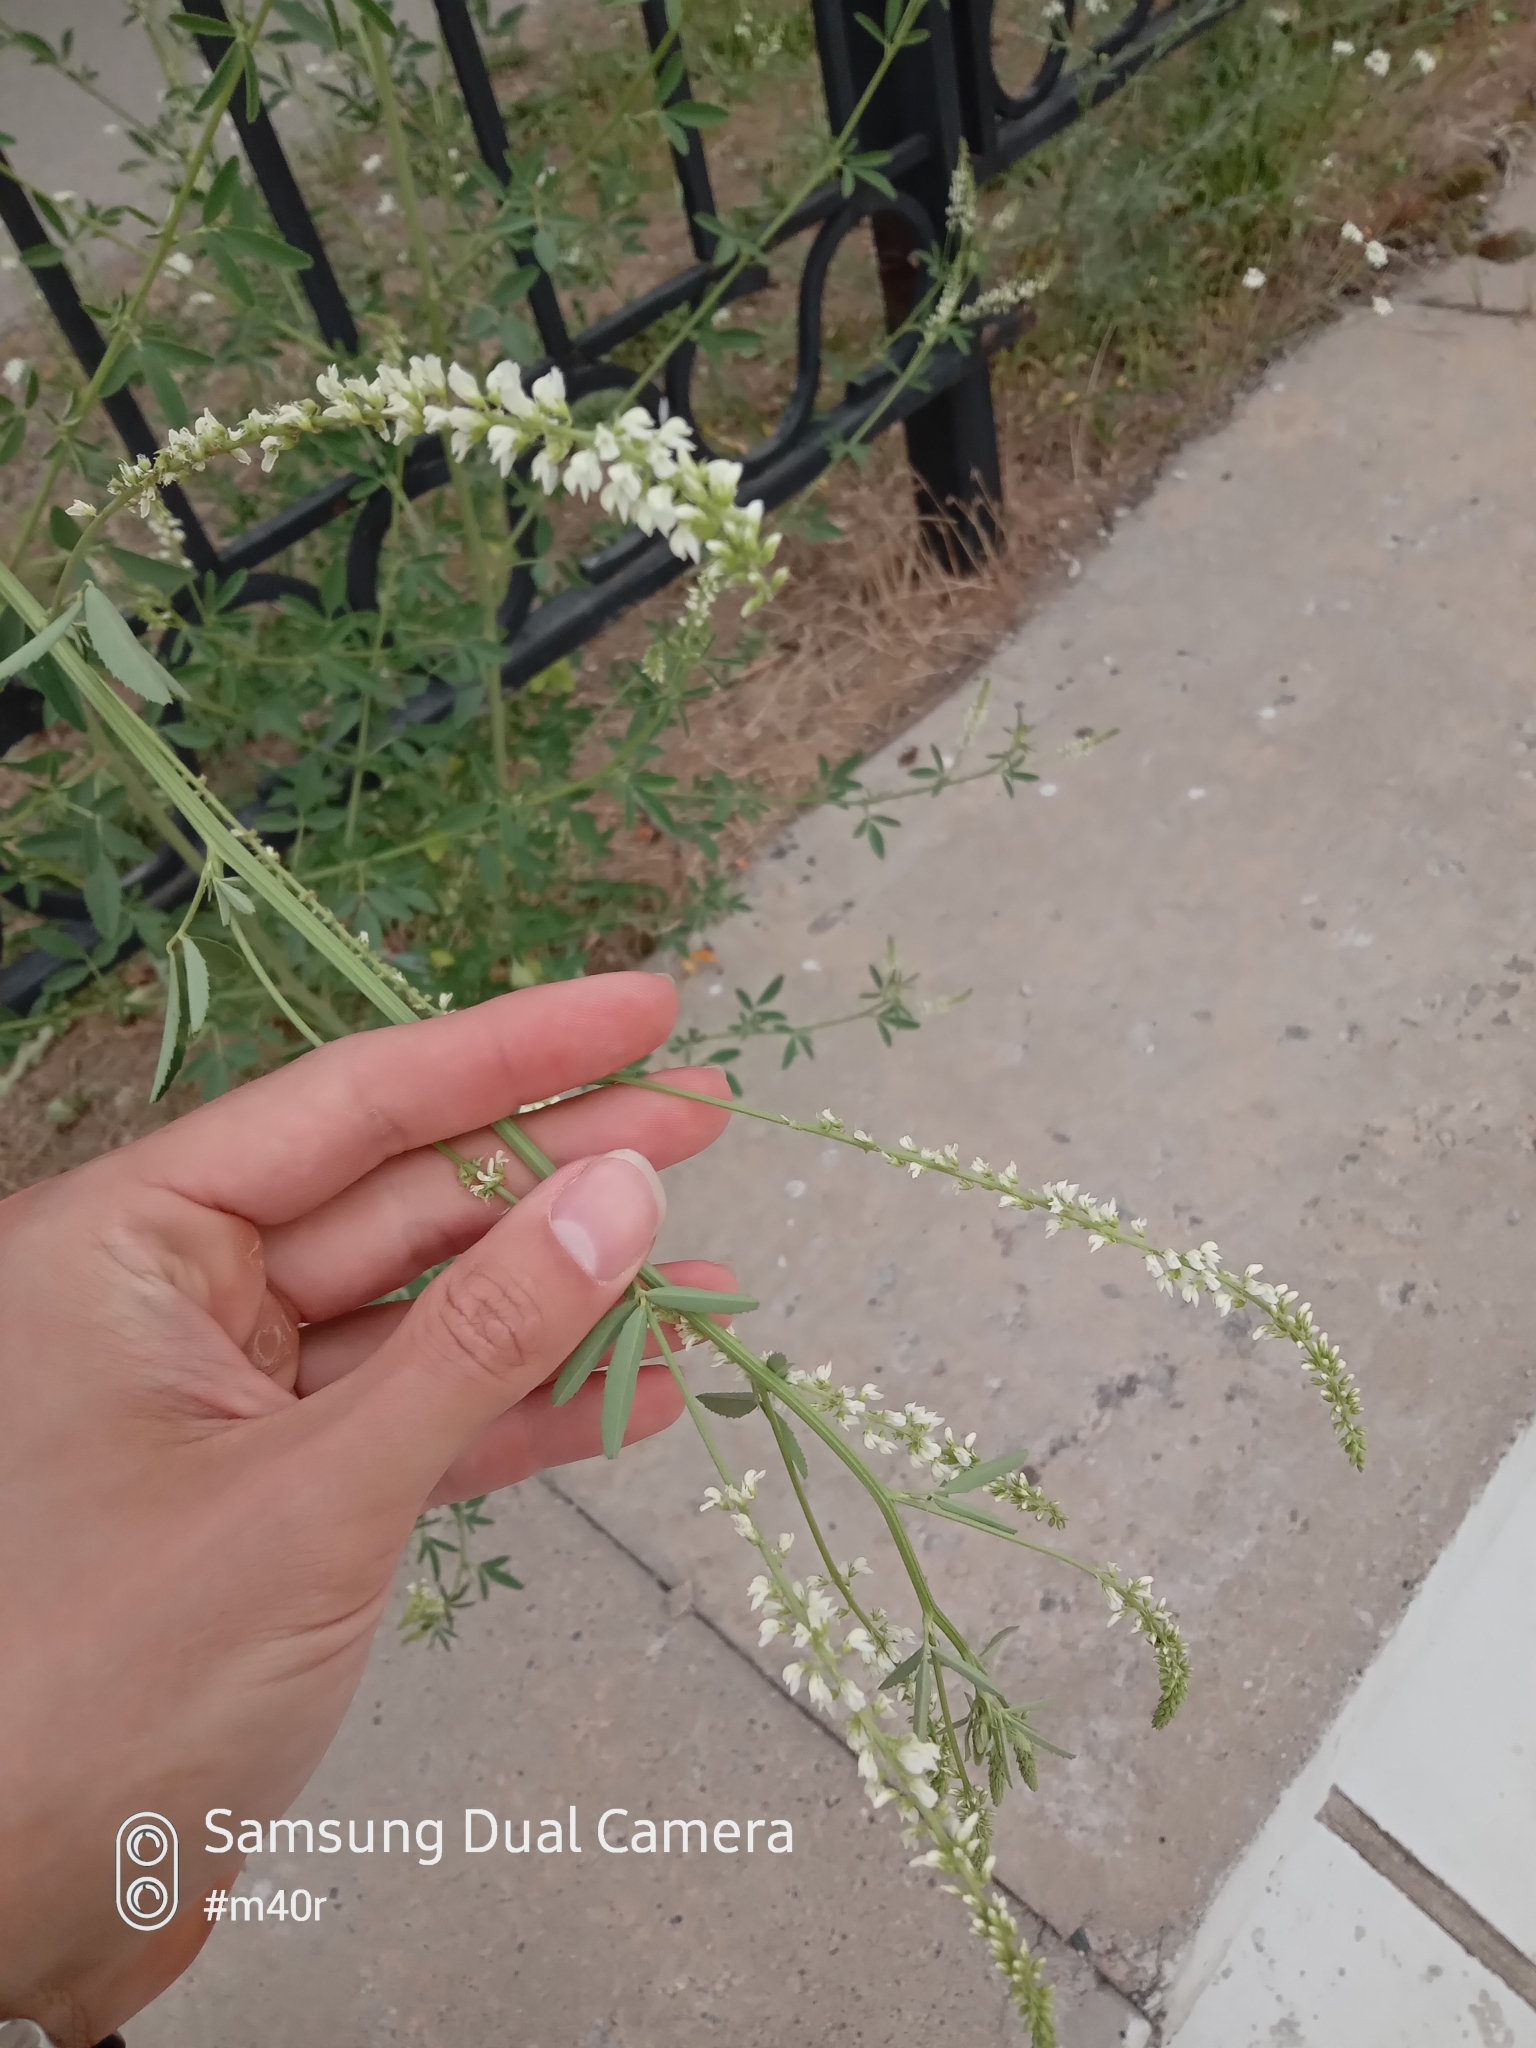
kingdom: Plantae
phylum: Tracheophyta
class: Magnoliopsida
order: Fabales
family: Fabaceae
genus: Melilotus
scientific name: Melilotus albus
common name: White melilot
